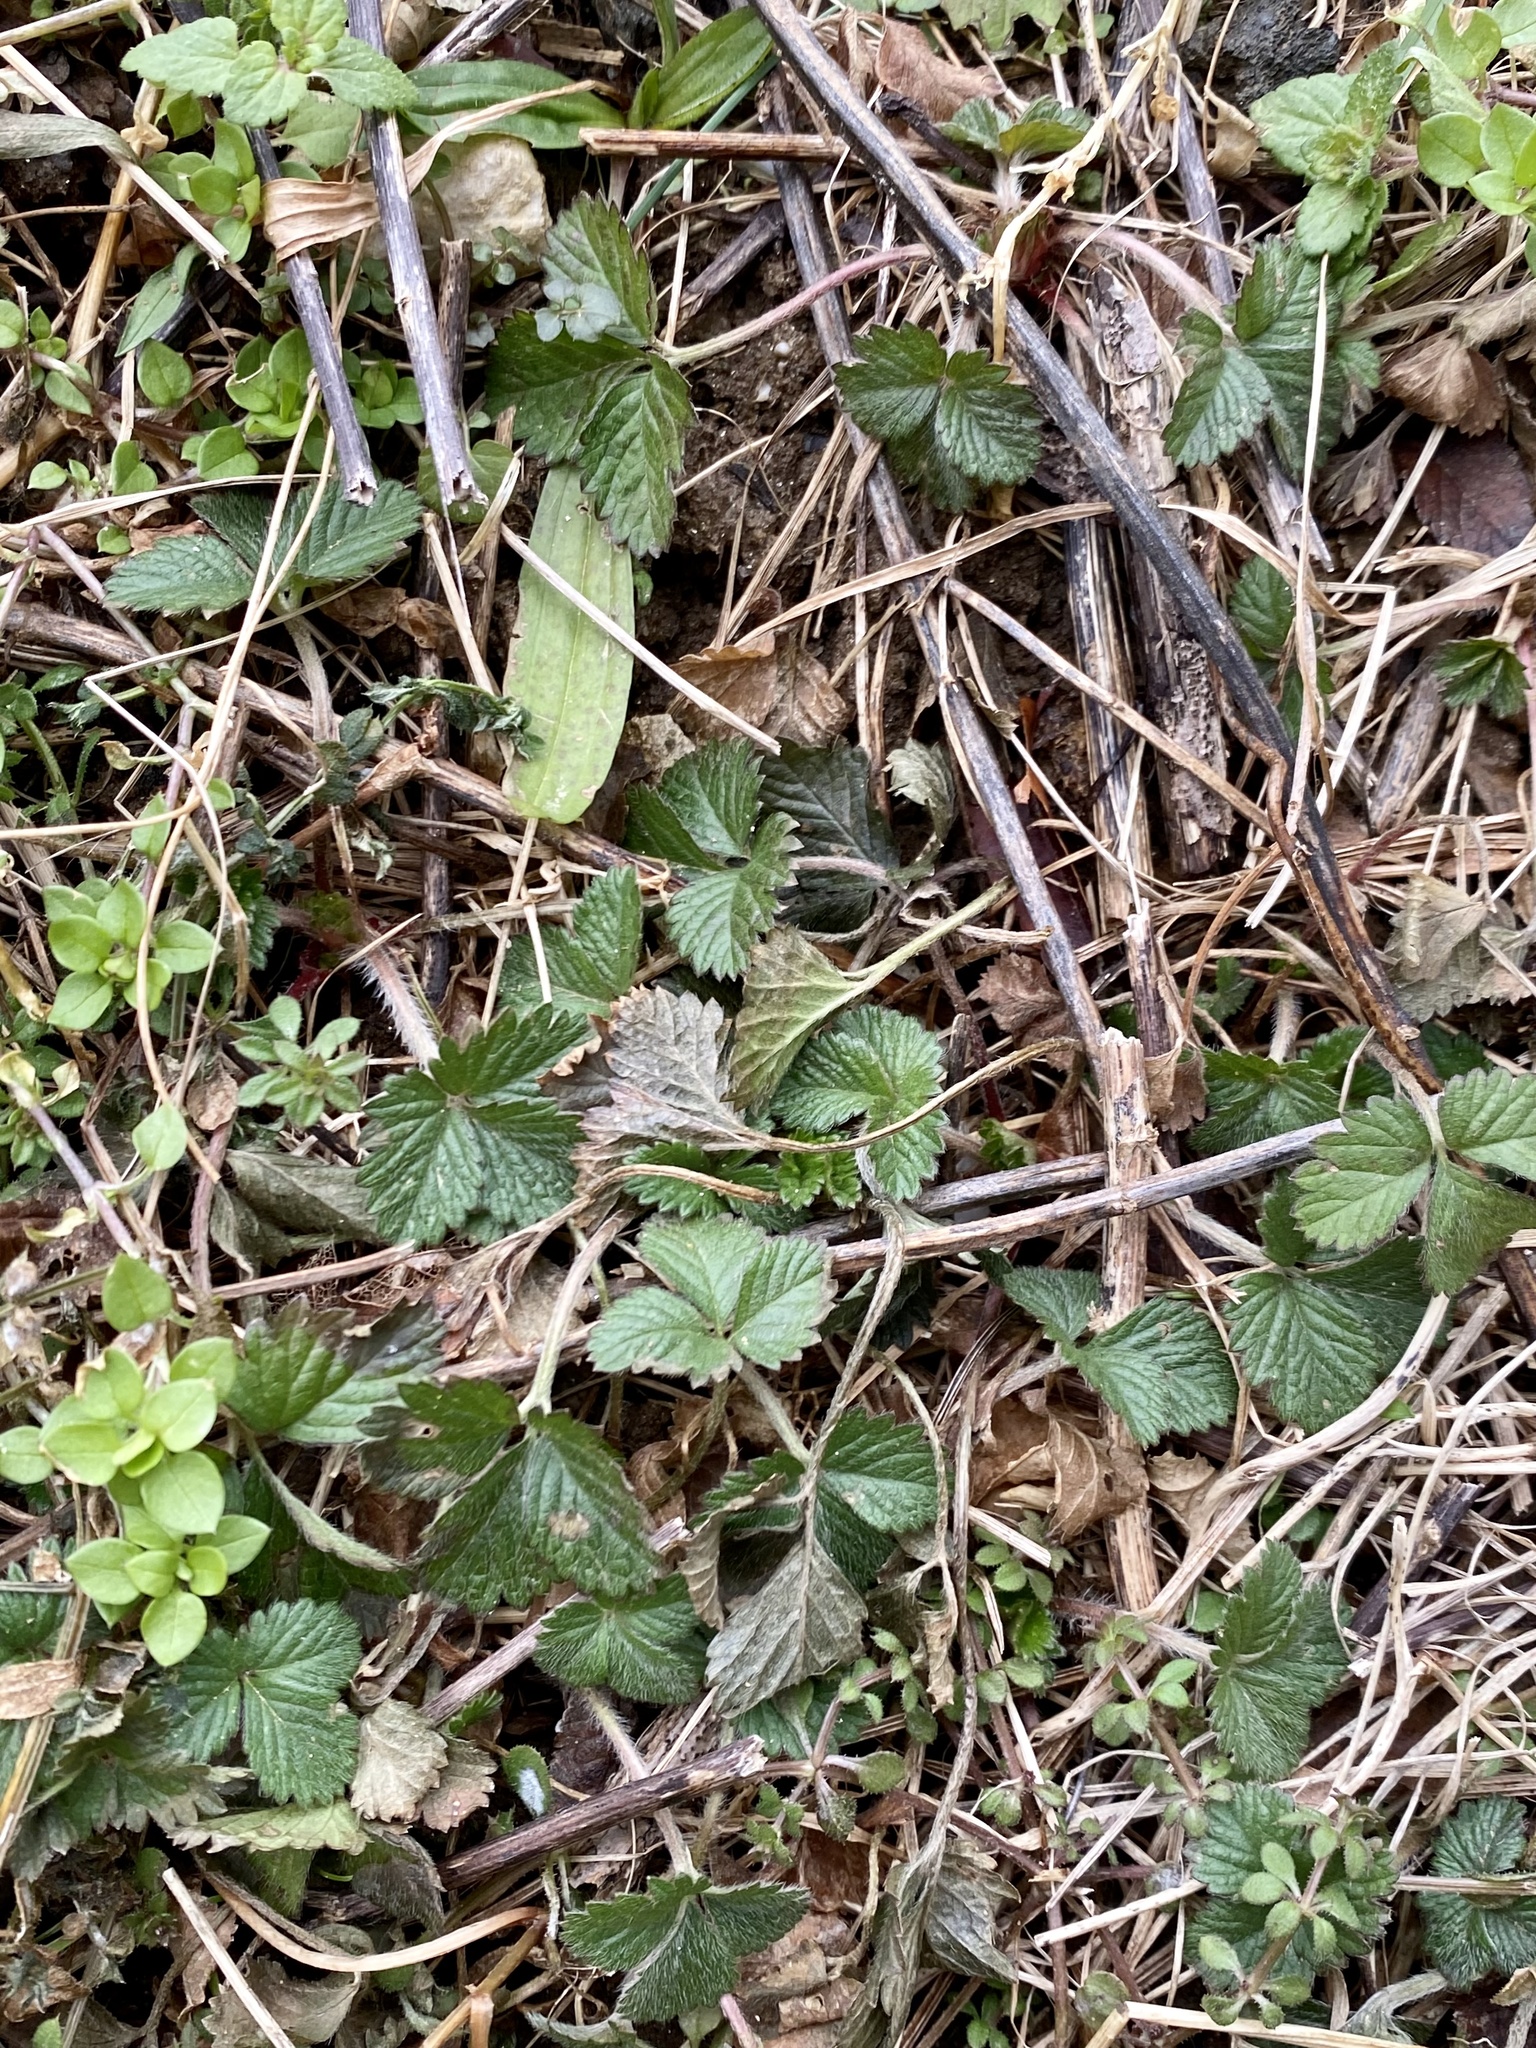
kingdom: Plantae
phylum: Tracheophyta
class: Magnoliopsida
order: Rosales
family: Rosaceae
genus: Potentilla
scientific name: Potentilla indica
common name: Yellow-flowered strawberry
